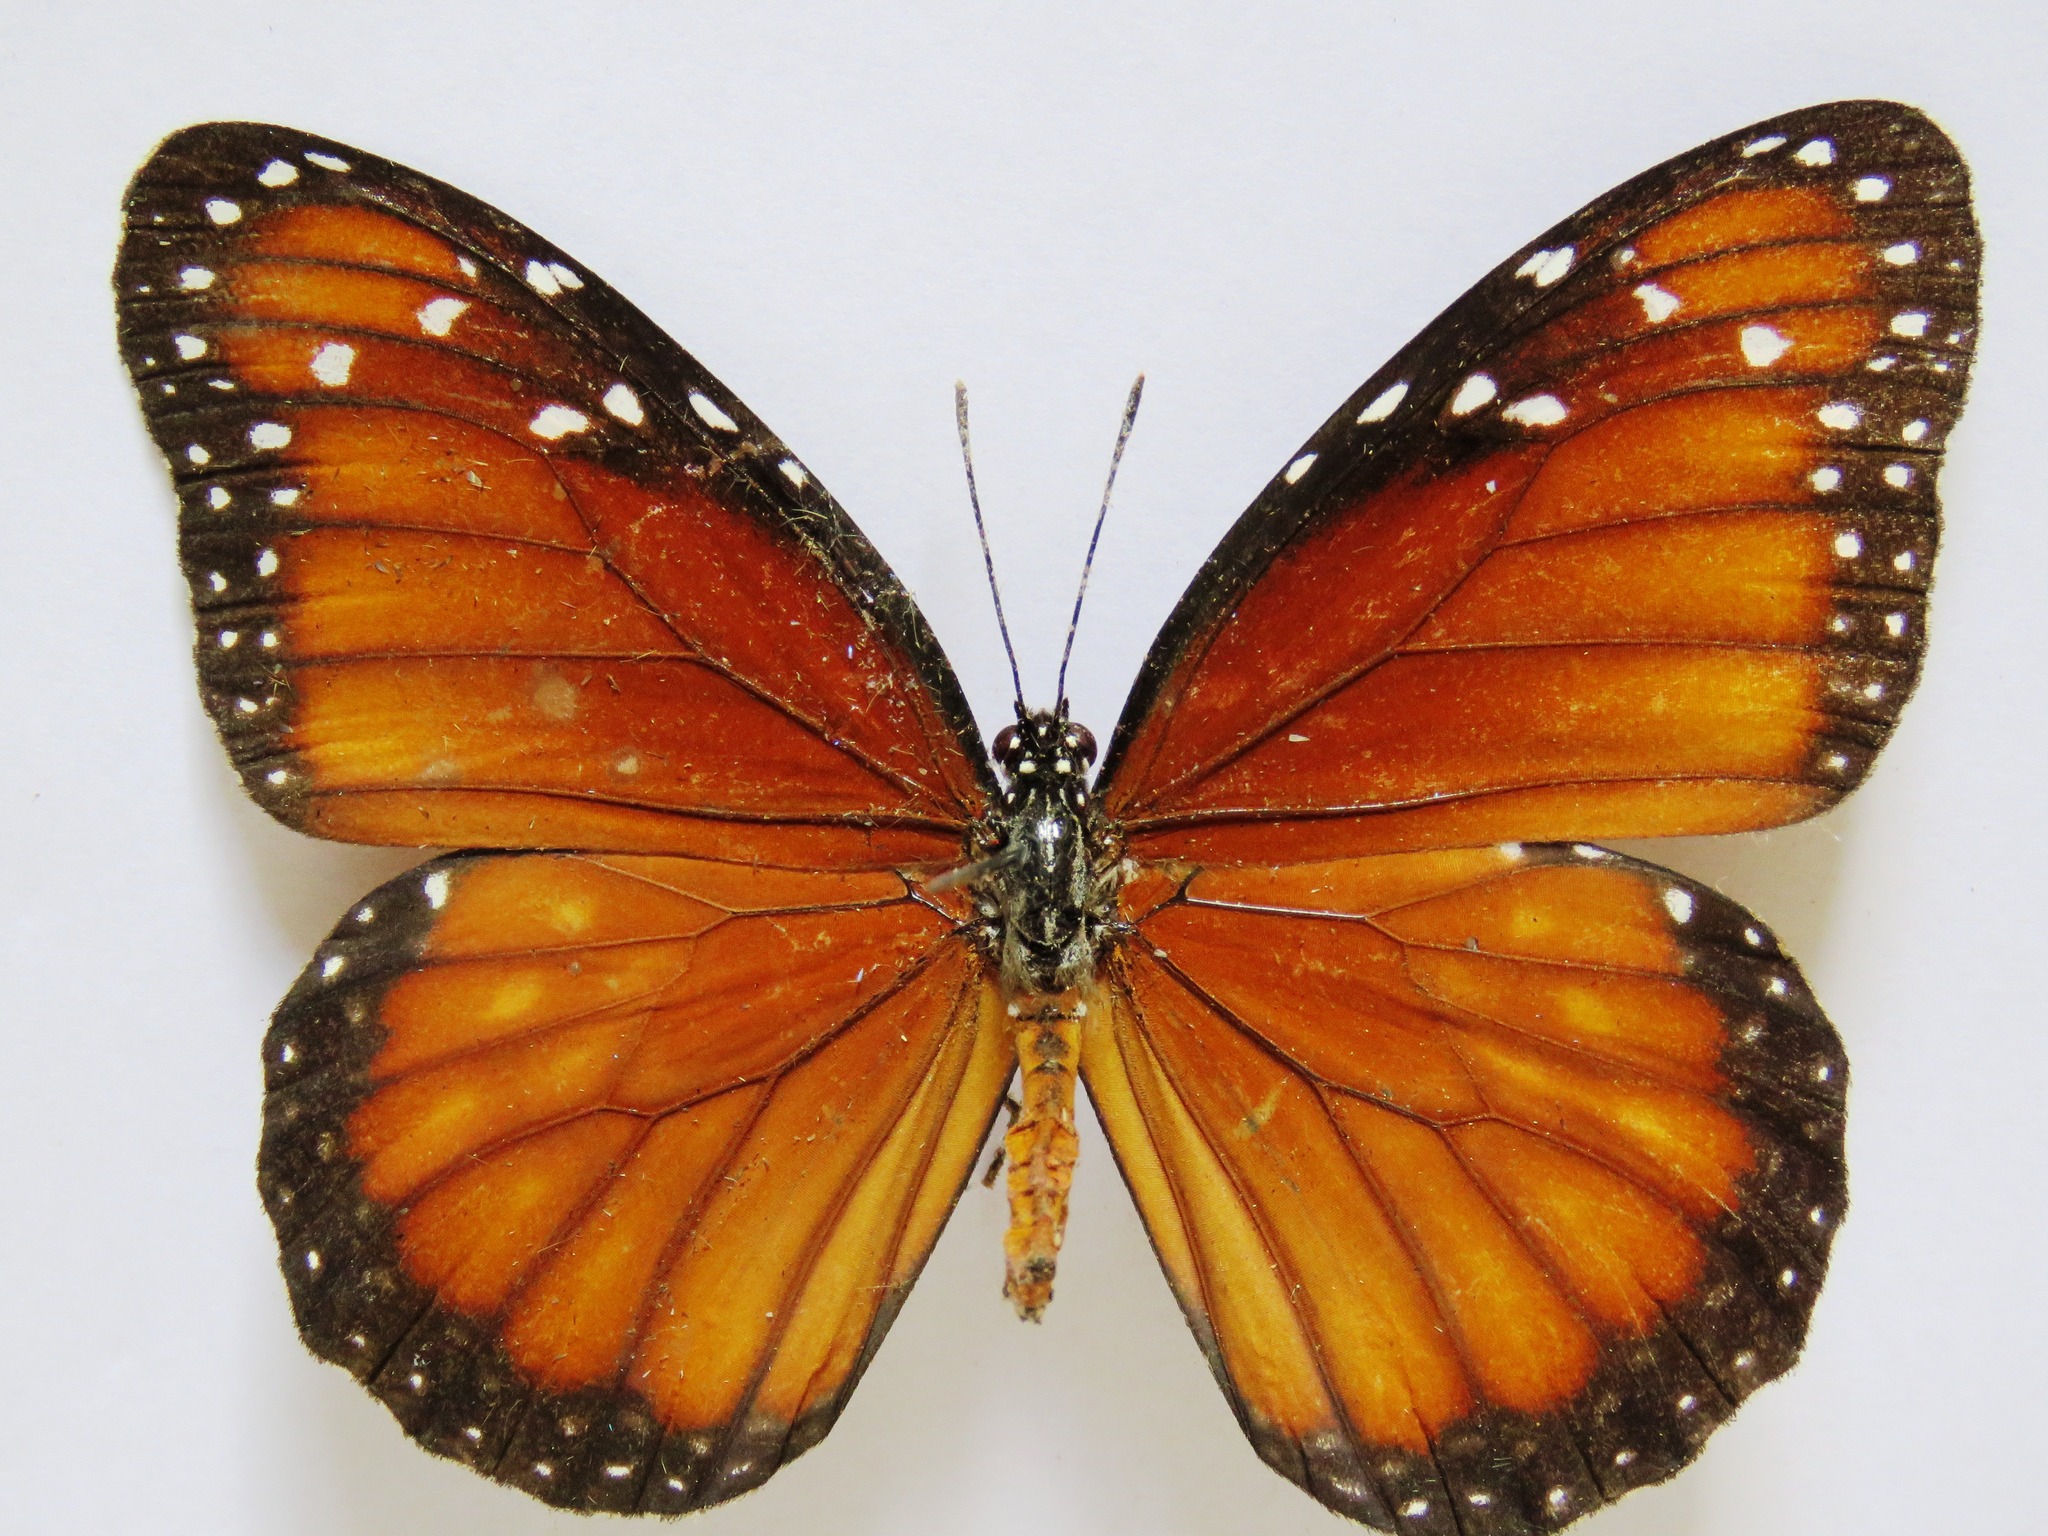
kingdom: Animalia
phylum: Arthropoda
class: Insecta
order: Lepidoptera
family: Nymphalidae
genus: Danaus
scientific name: Danaus eresimus
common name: Soldier
